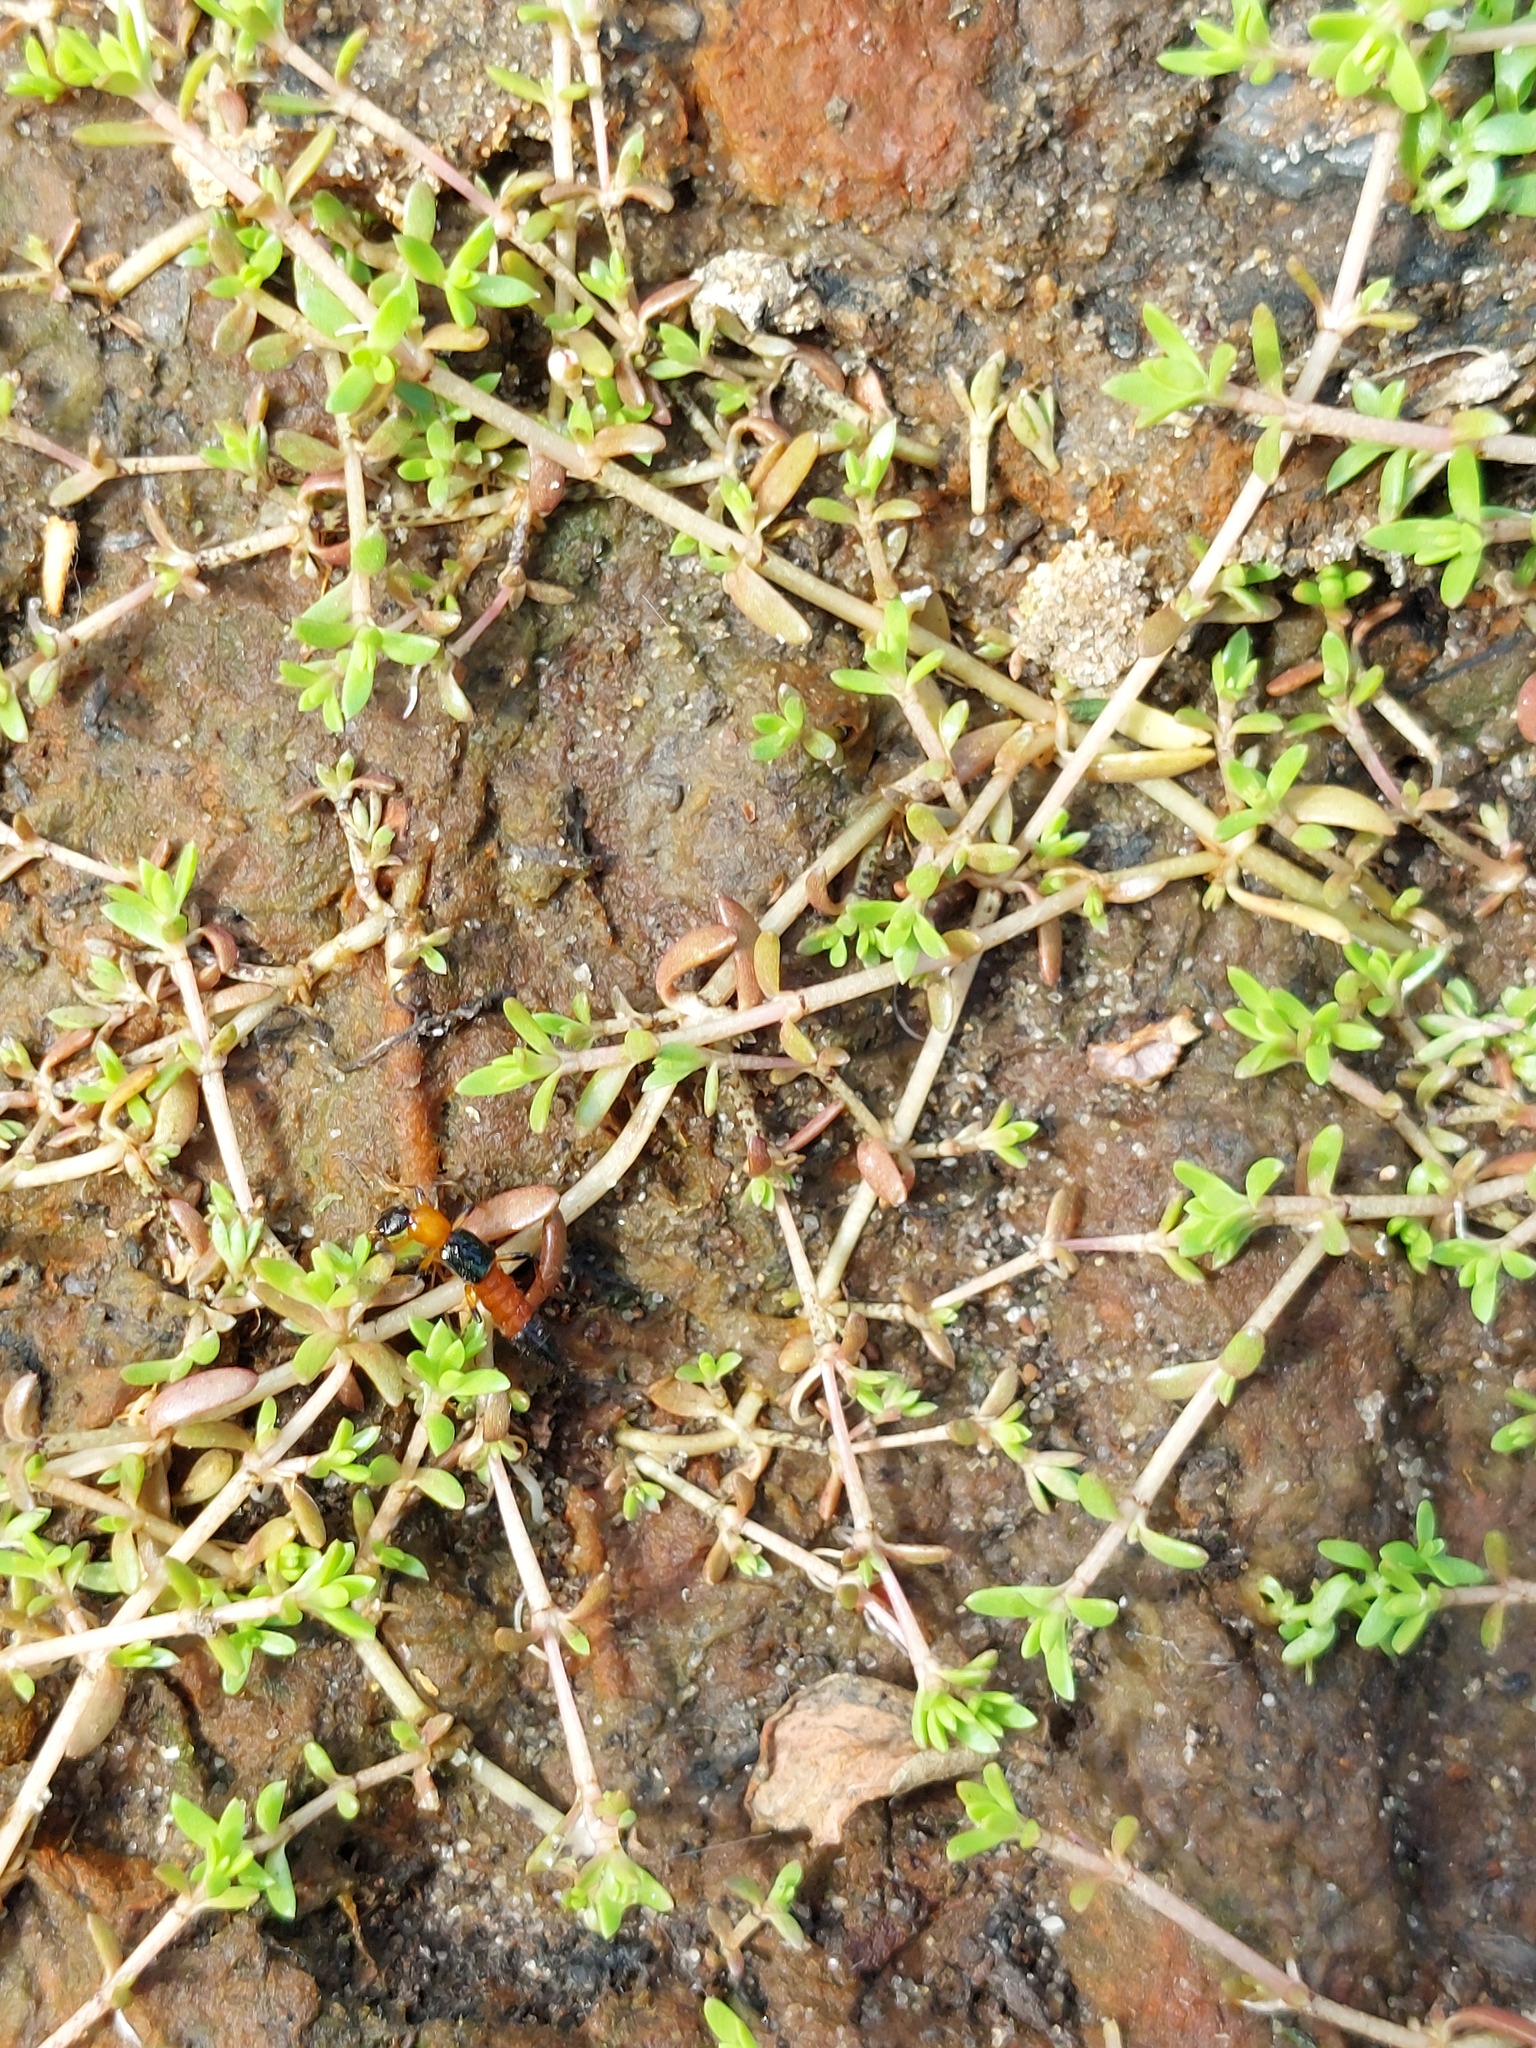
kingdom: Plantae
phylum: Tracheophyta
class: Magnoliopsida
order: Saxifragales
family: Crassulaceae
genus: Crassula
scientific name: Crassula helmsii
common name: New zealand pigmyweed
